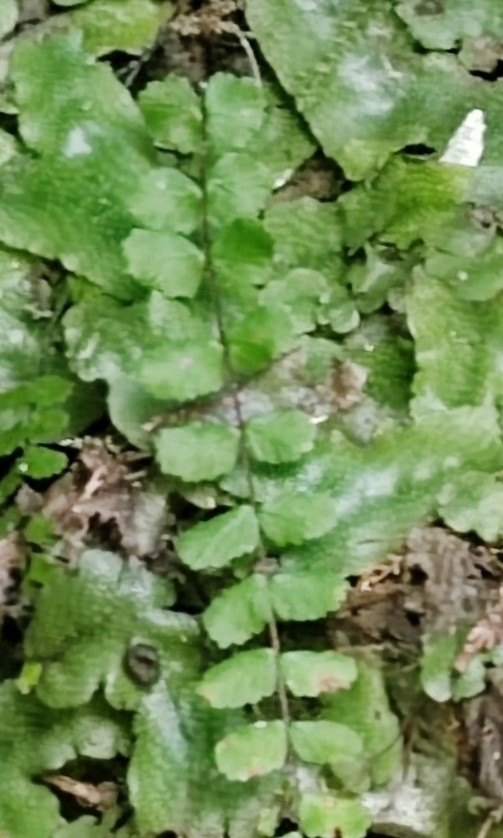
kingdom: Plantae
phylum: Tracheophyta
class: Polypodiopsida
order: Polypodiales
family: Aspleniaceae
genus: Asplenium
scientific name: Asplenium trichomanes
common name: Maidenhair spleenwort
